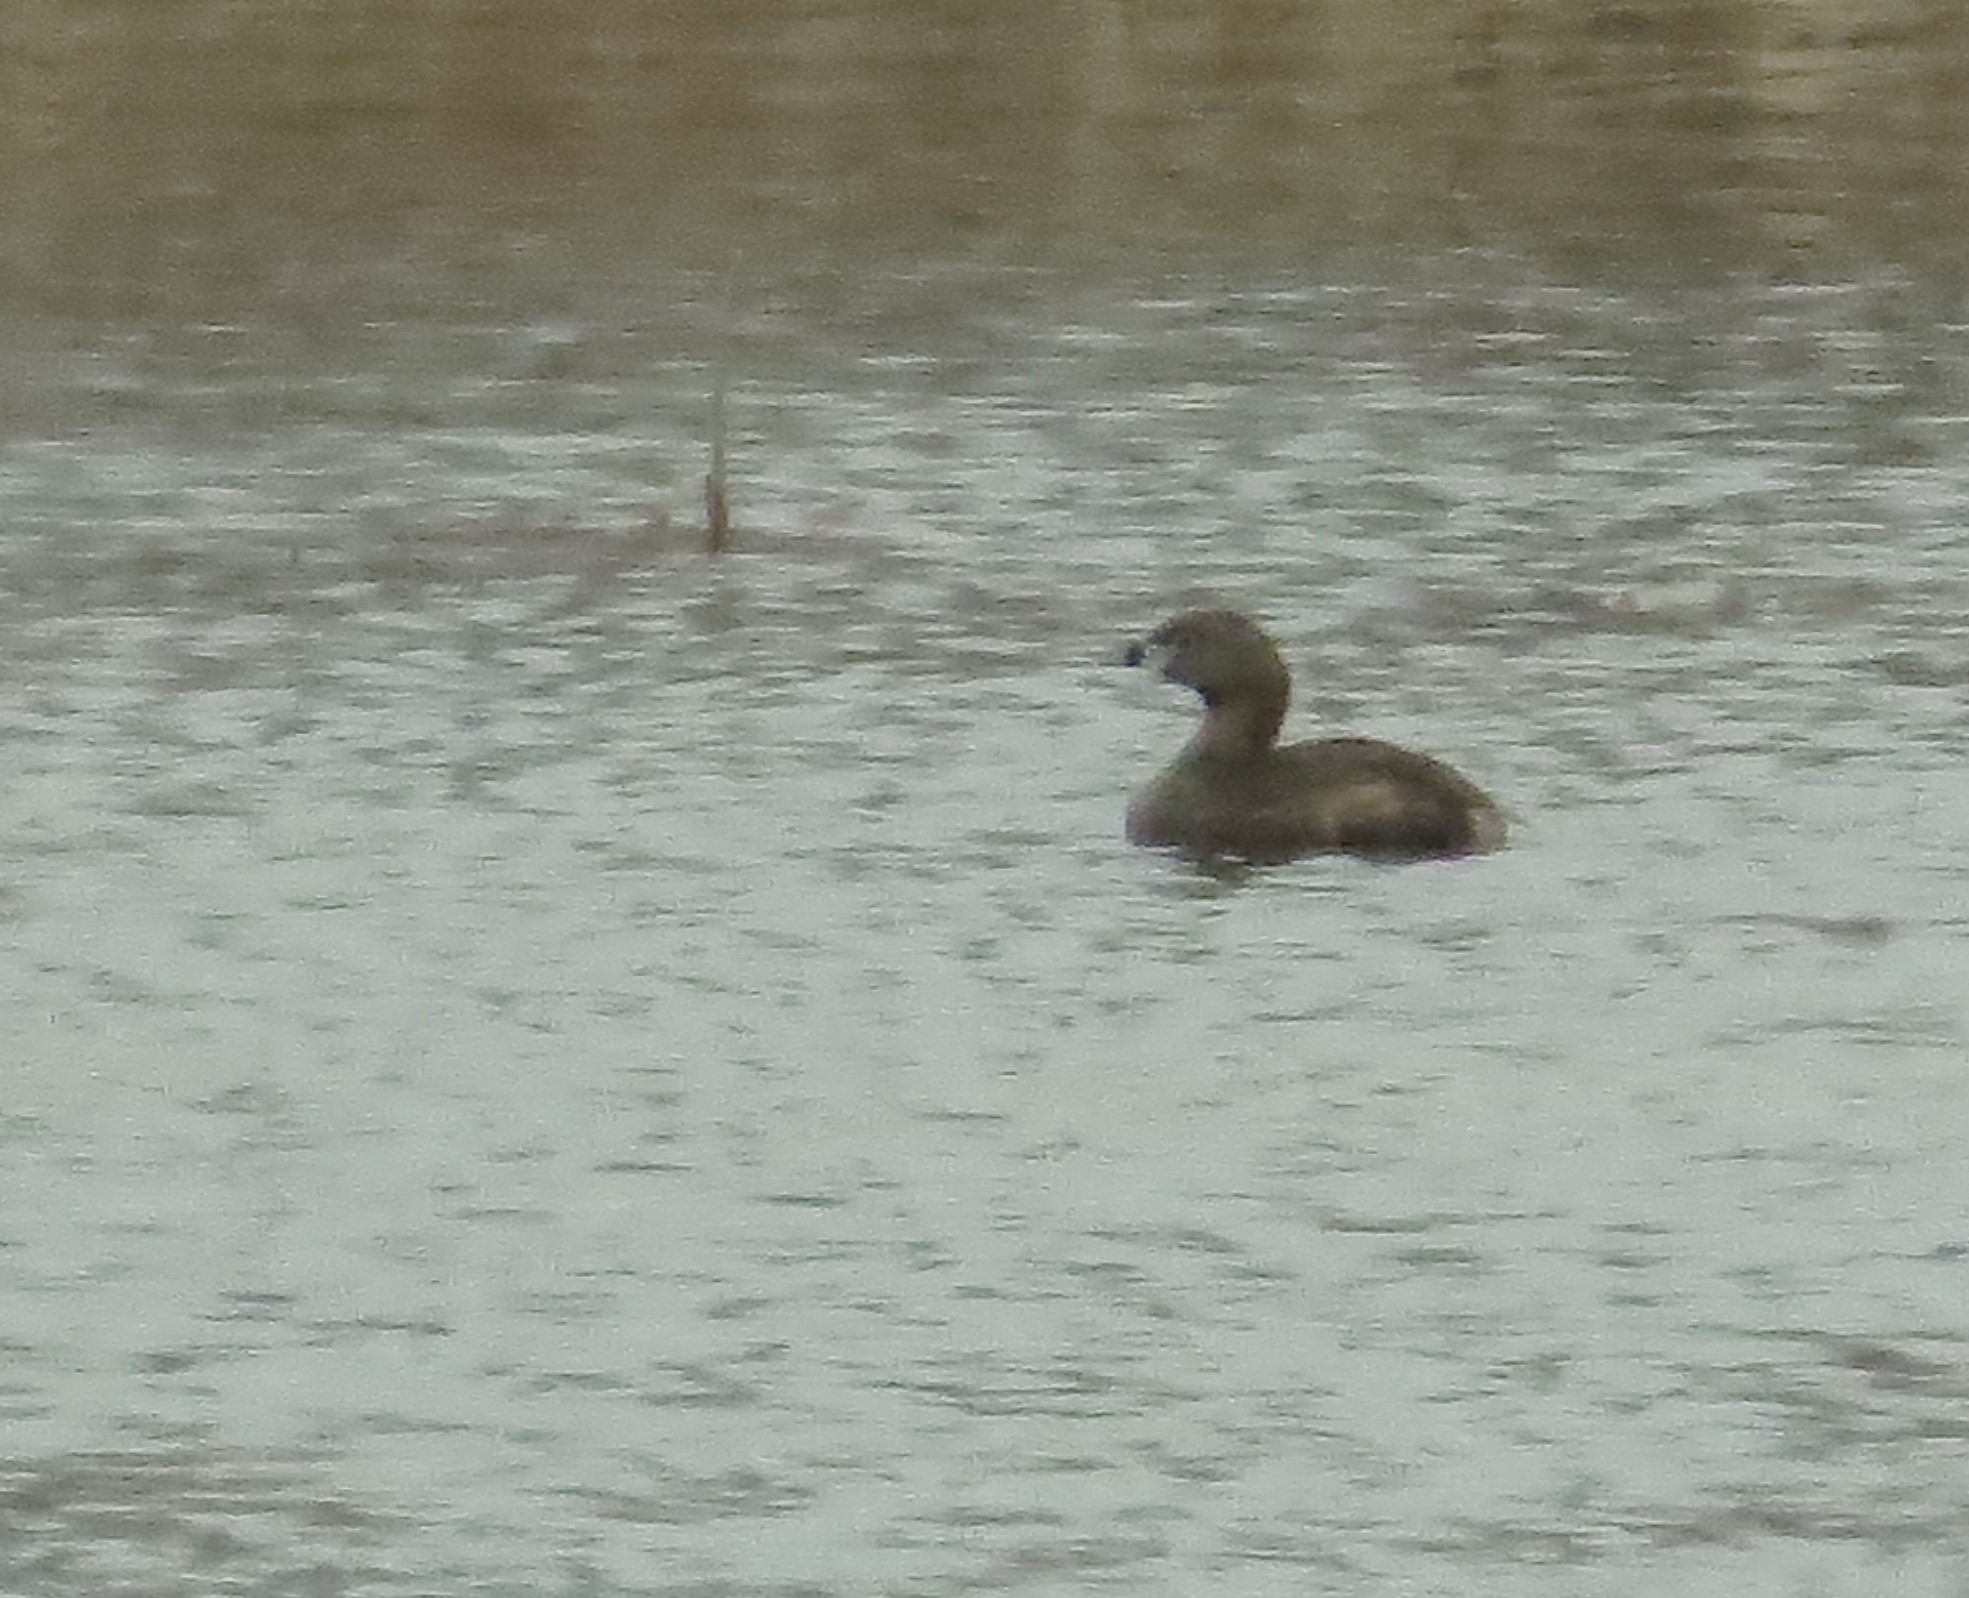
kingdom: Animalia
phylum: Chordata
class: Aves
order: Podicipediformes
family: Podicipedidae
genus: Podilymbus
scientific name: Podilymbus podiceps
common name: Pied-billed grebe
